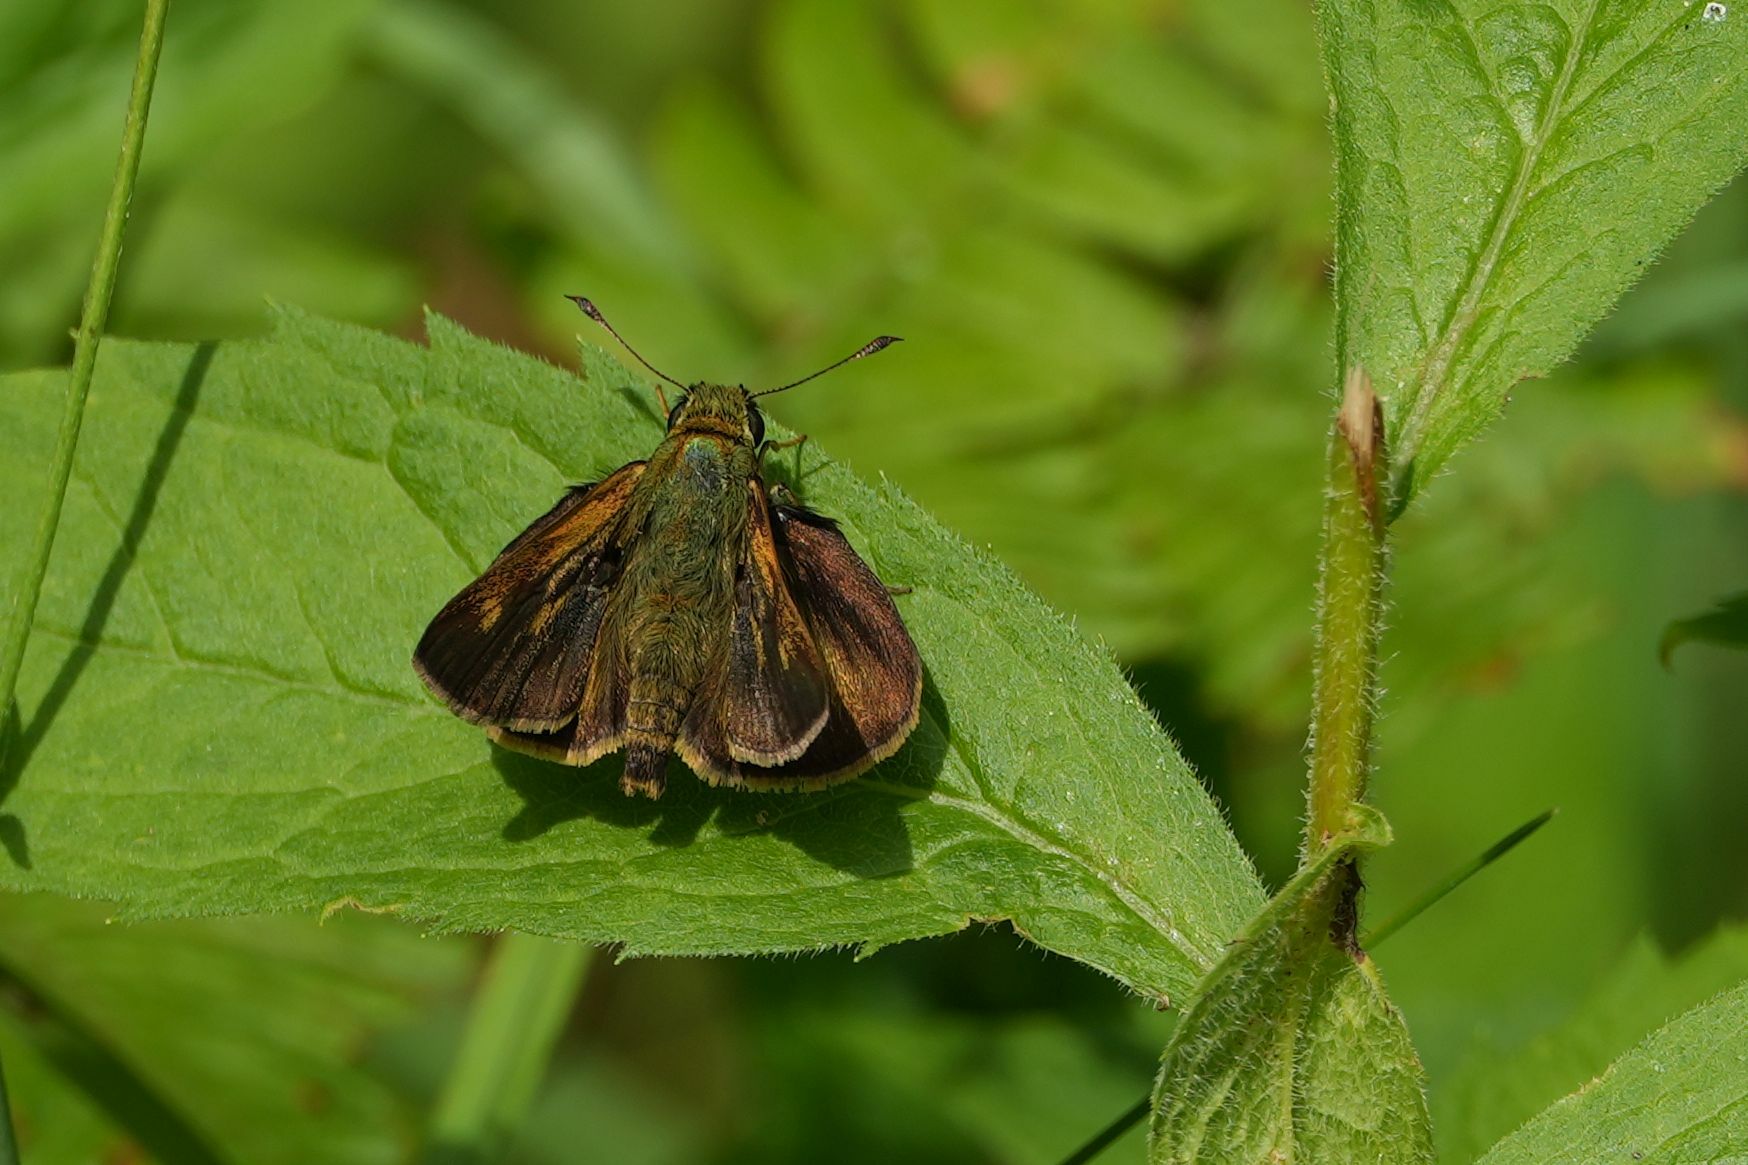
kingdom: Animalia
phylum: Arthropoda
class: Insecta
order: Lepidoptera
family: Hesperiidae
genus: Polites
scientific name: Polites egeremet
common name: Northern broken-dash
